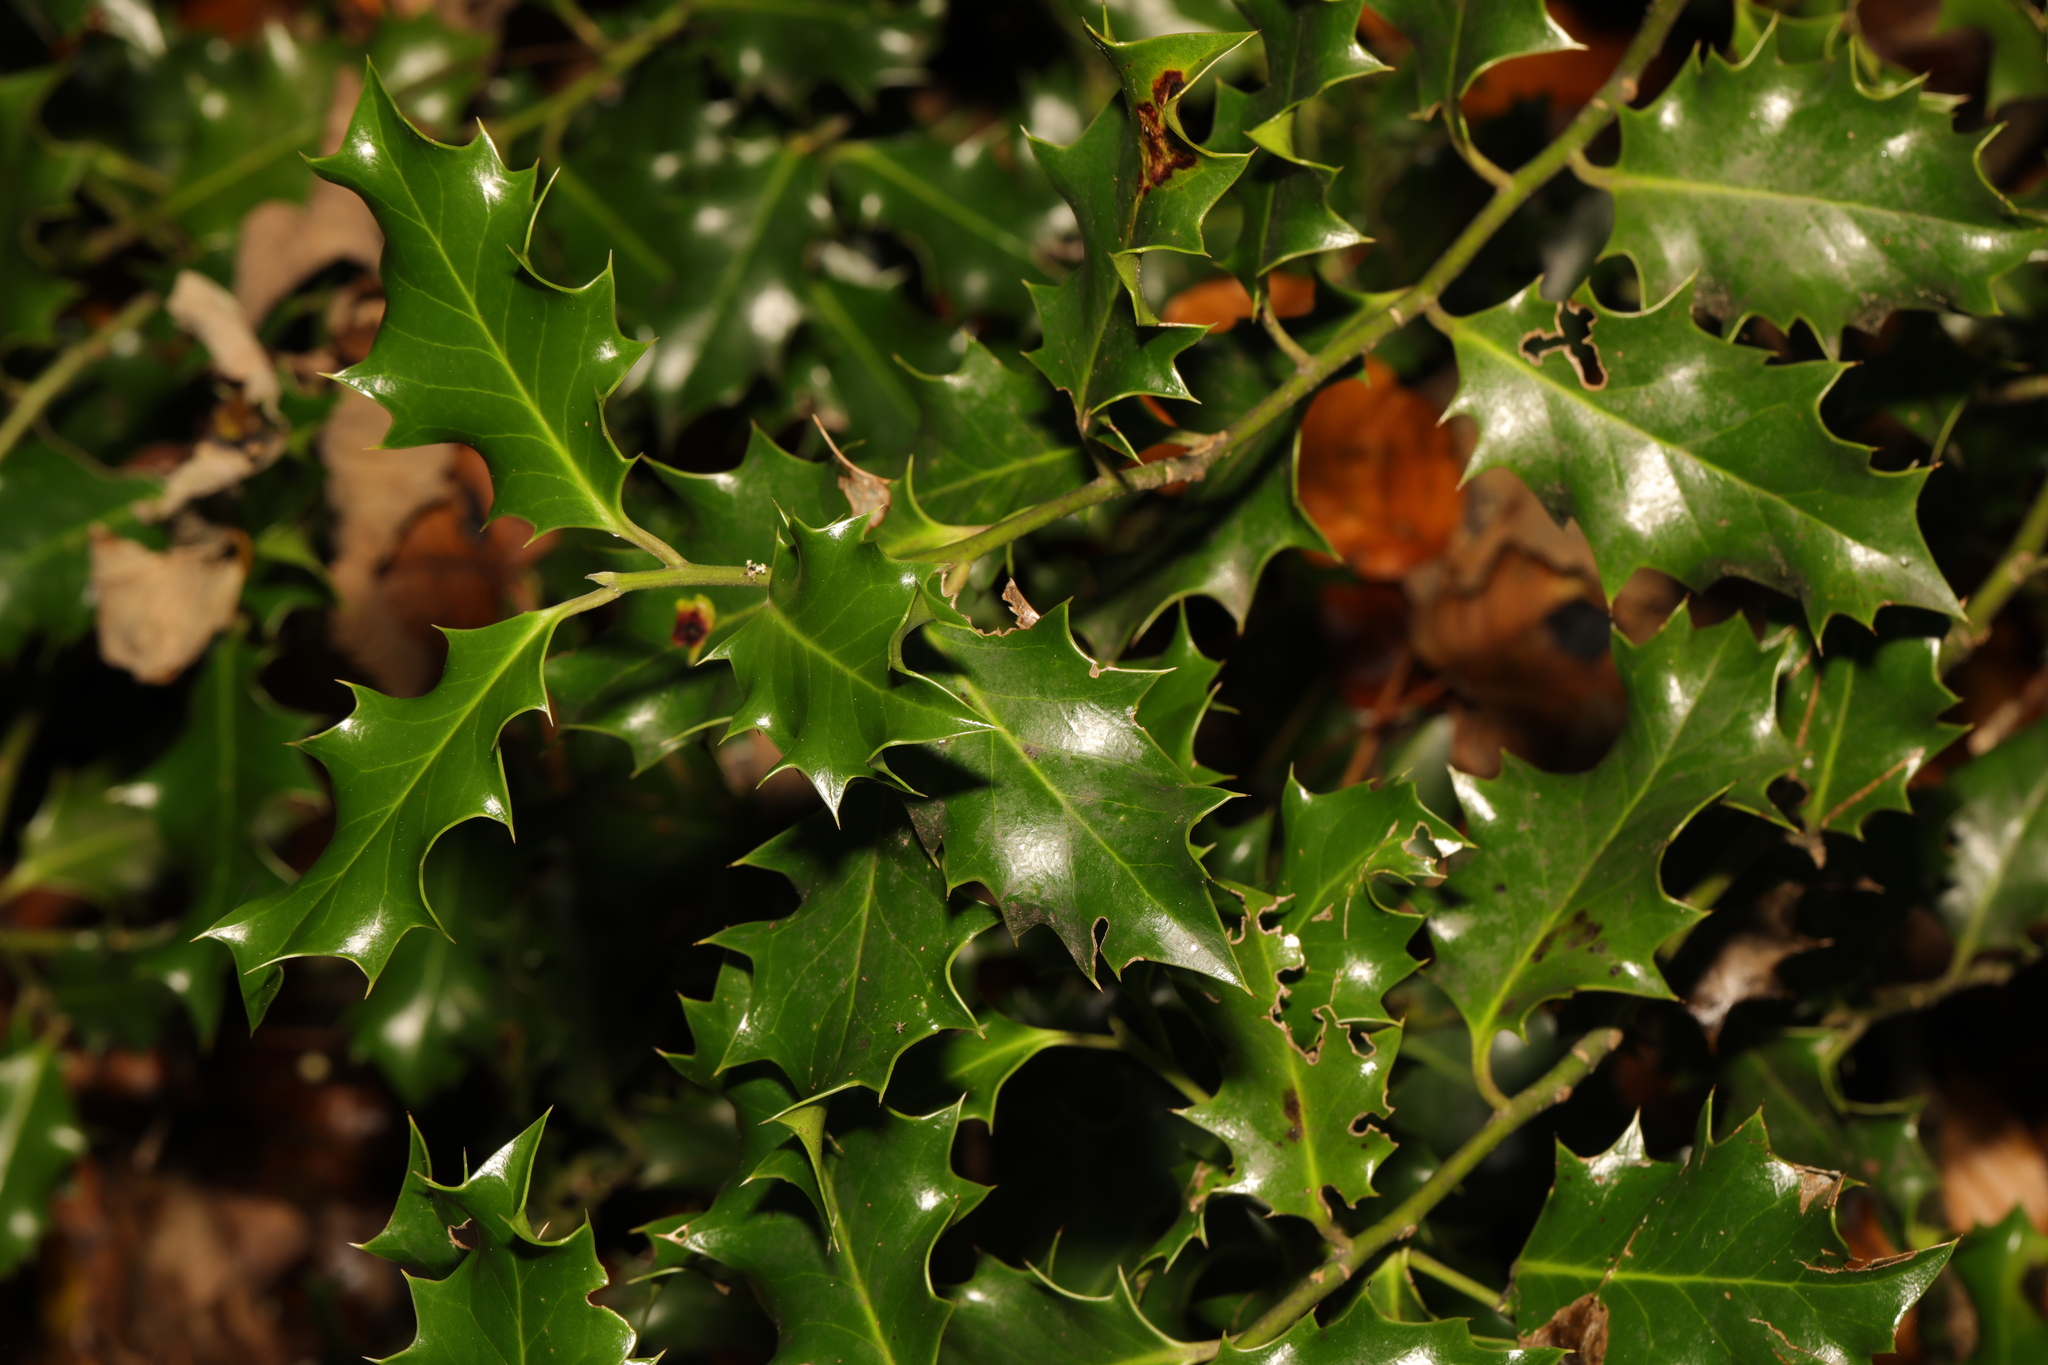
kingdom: Plantae
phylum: Tracheophyta
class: Magnoliopsida
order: Aquifoliales
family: Aquifoliaceae
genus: Ilex
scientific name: Ilex aquifolium
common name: English holly
